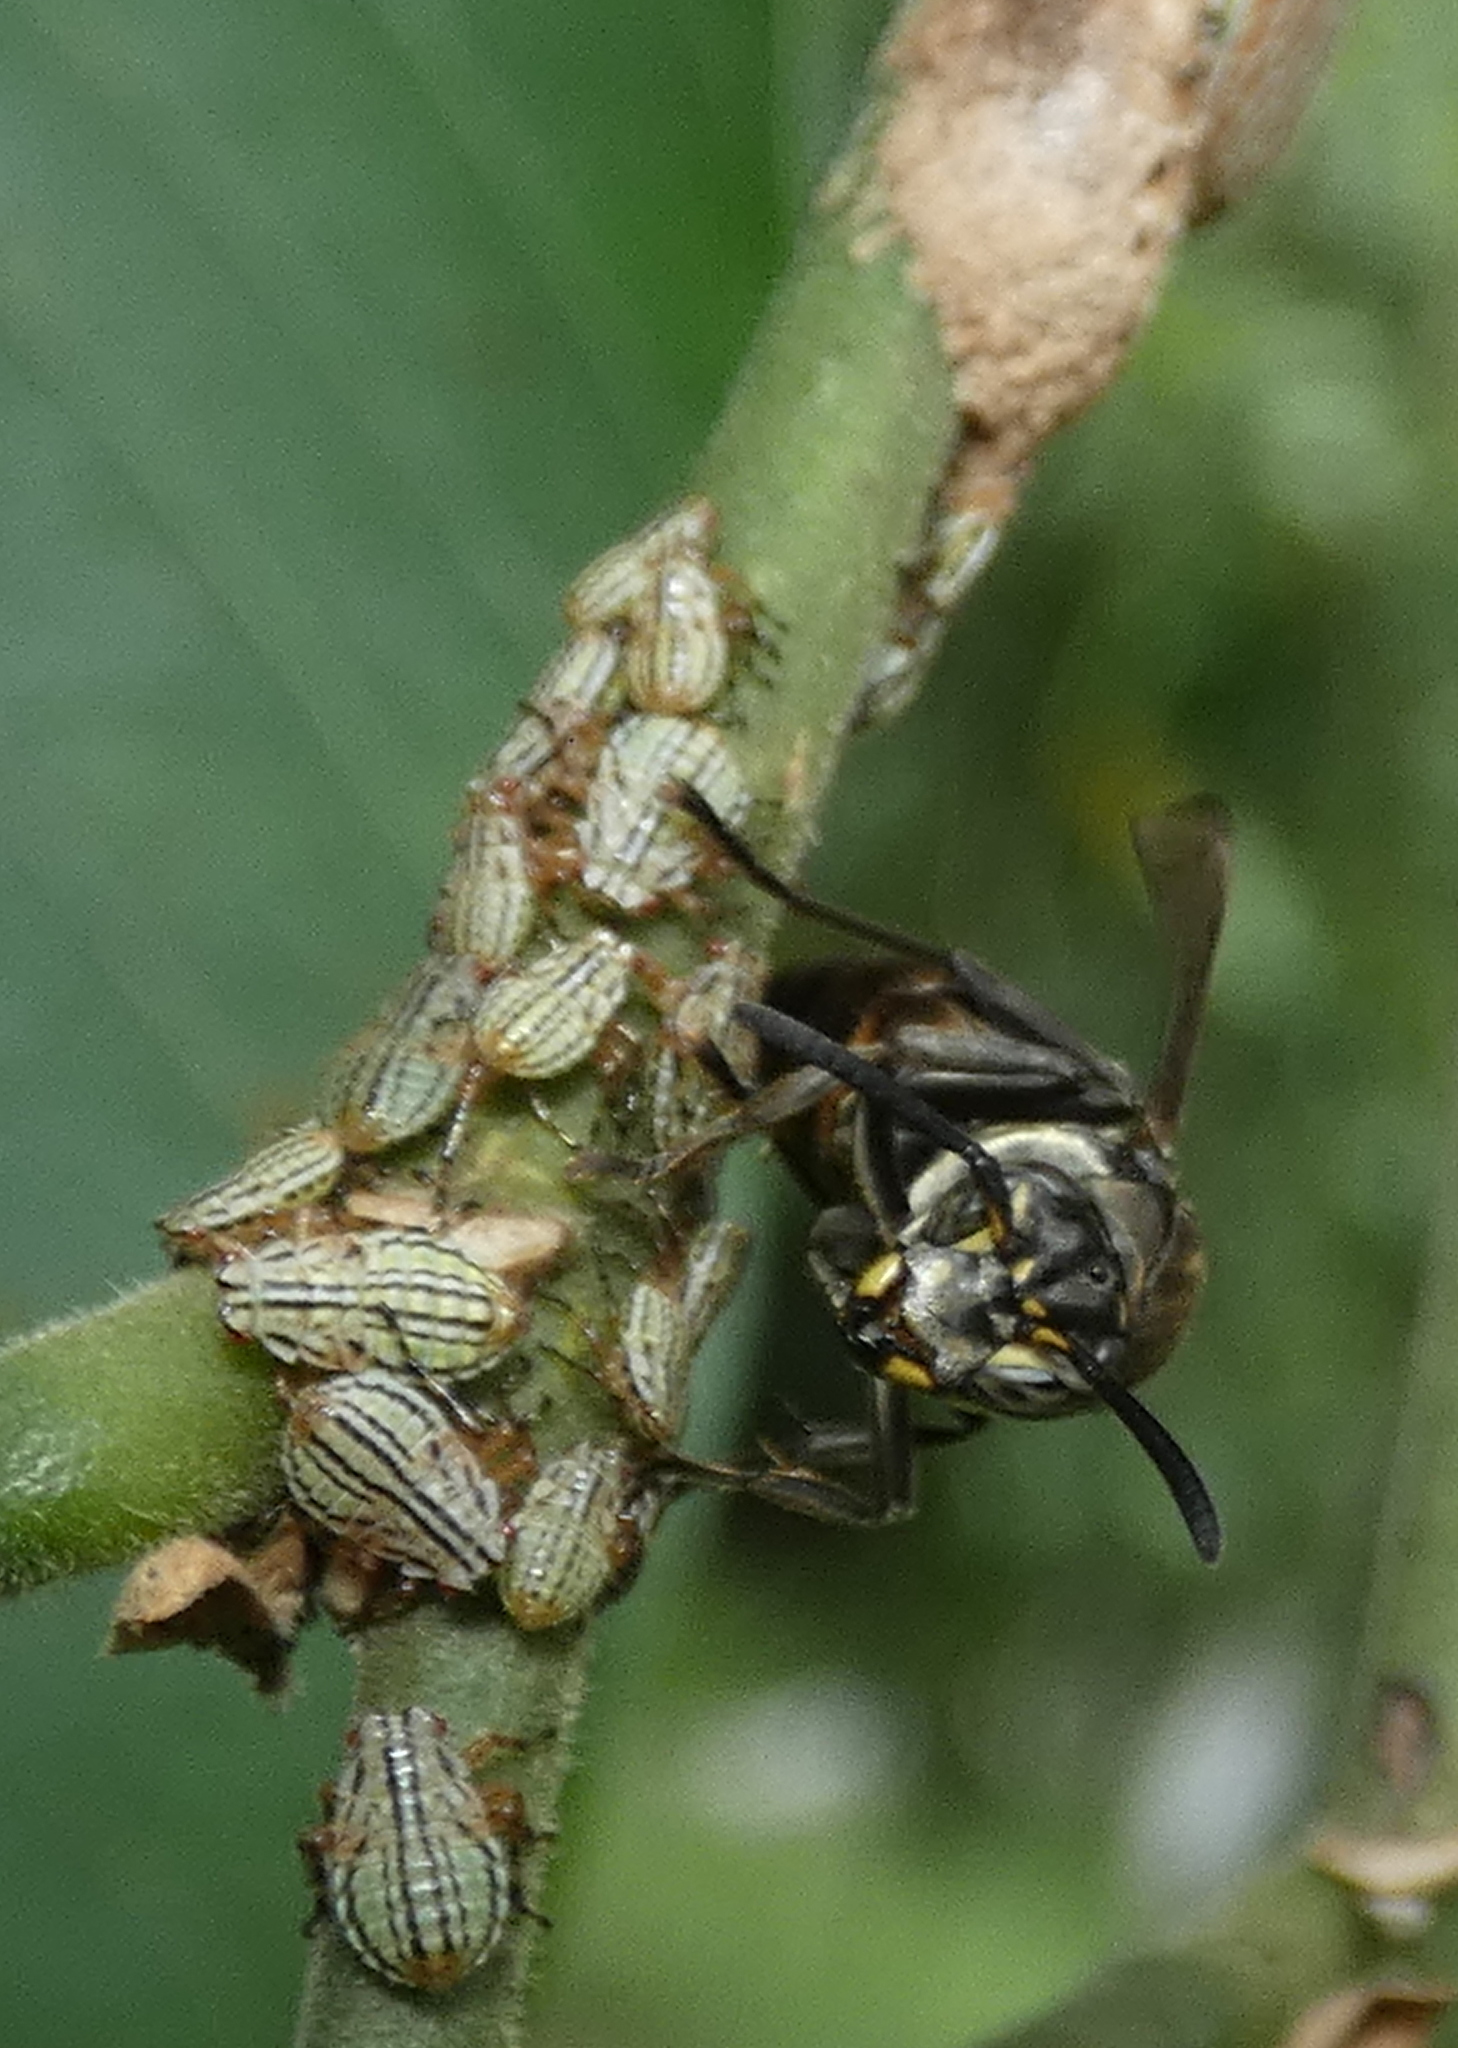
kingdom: Animalia
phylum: Arthropoda
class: Insecta
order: Hymenoptera
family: Vespidae
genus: Parachartergus
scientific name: Parachartergus compressus
